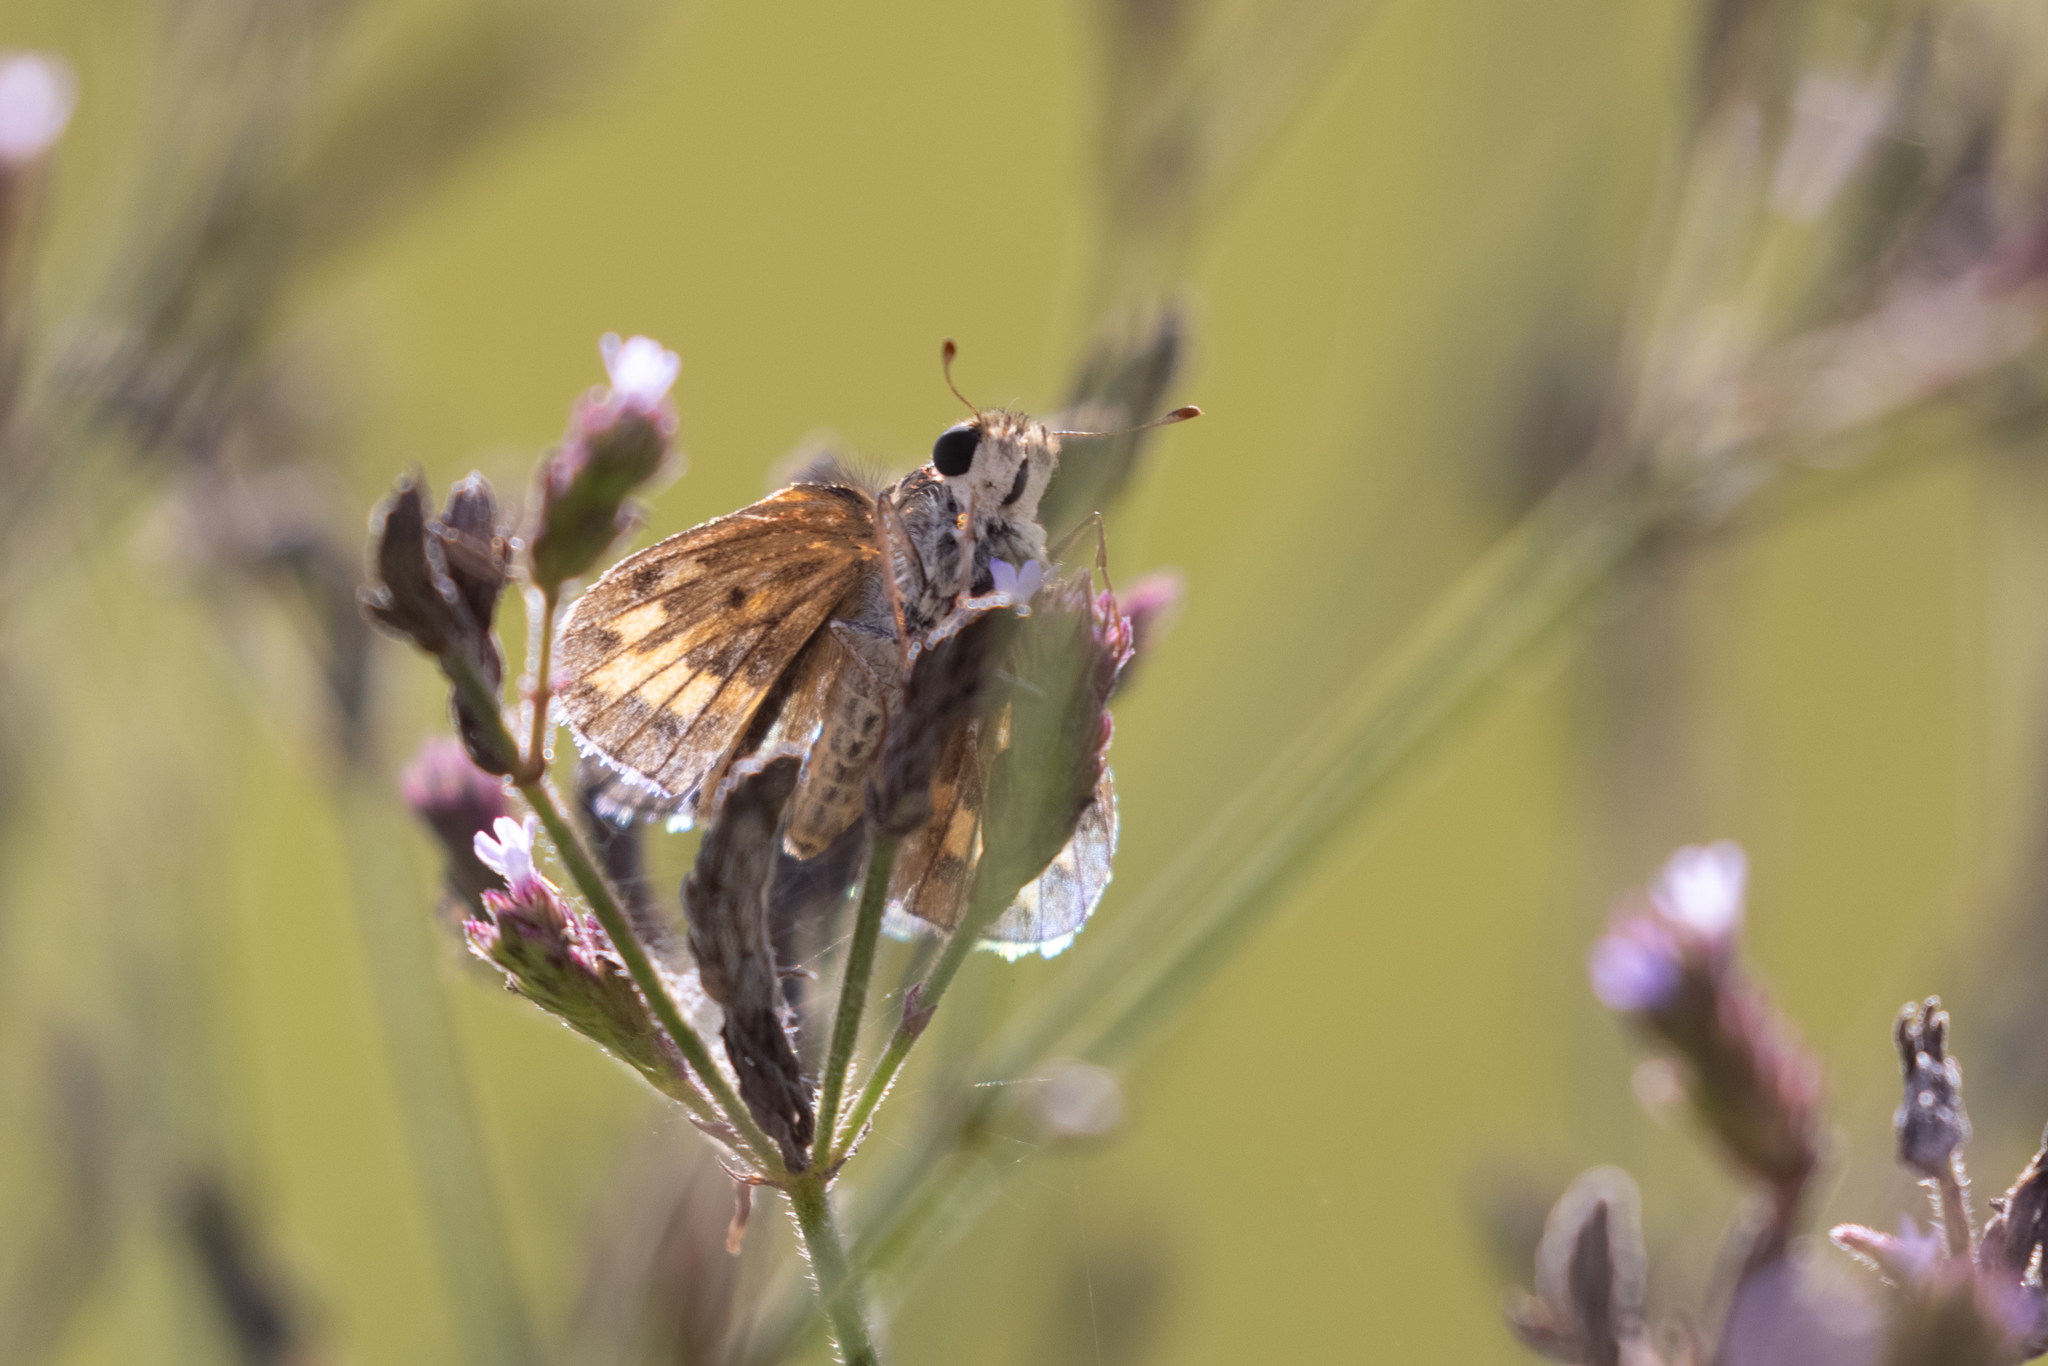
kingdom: Animalia
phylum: Arthropoda
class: Insecta
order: Lepidoptera
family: Hesperiidae
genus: Hylephila
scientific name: Hylephila phyleus
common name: Fiery skipper
